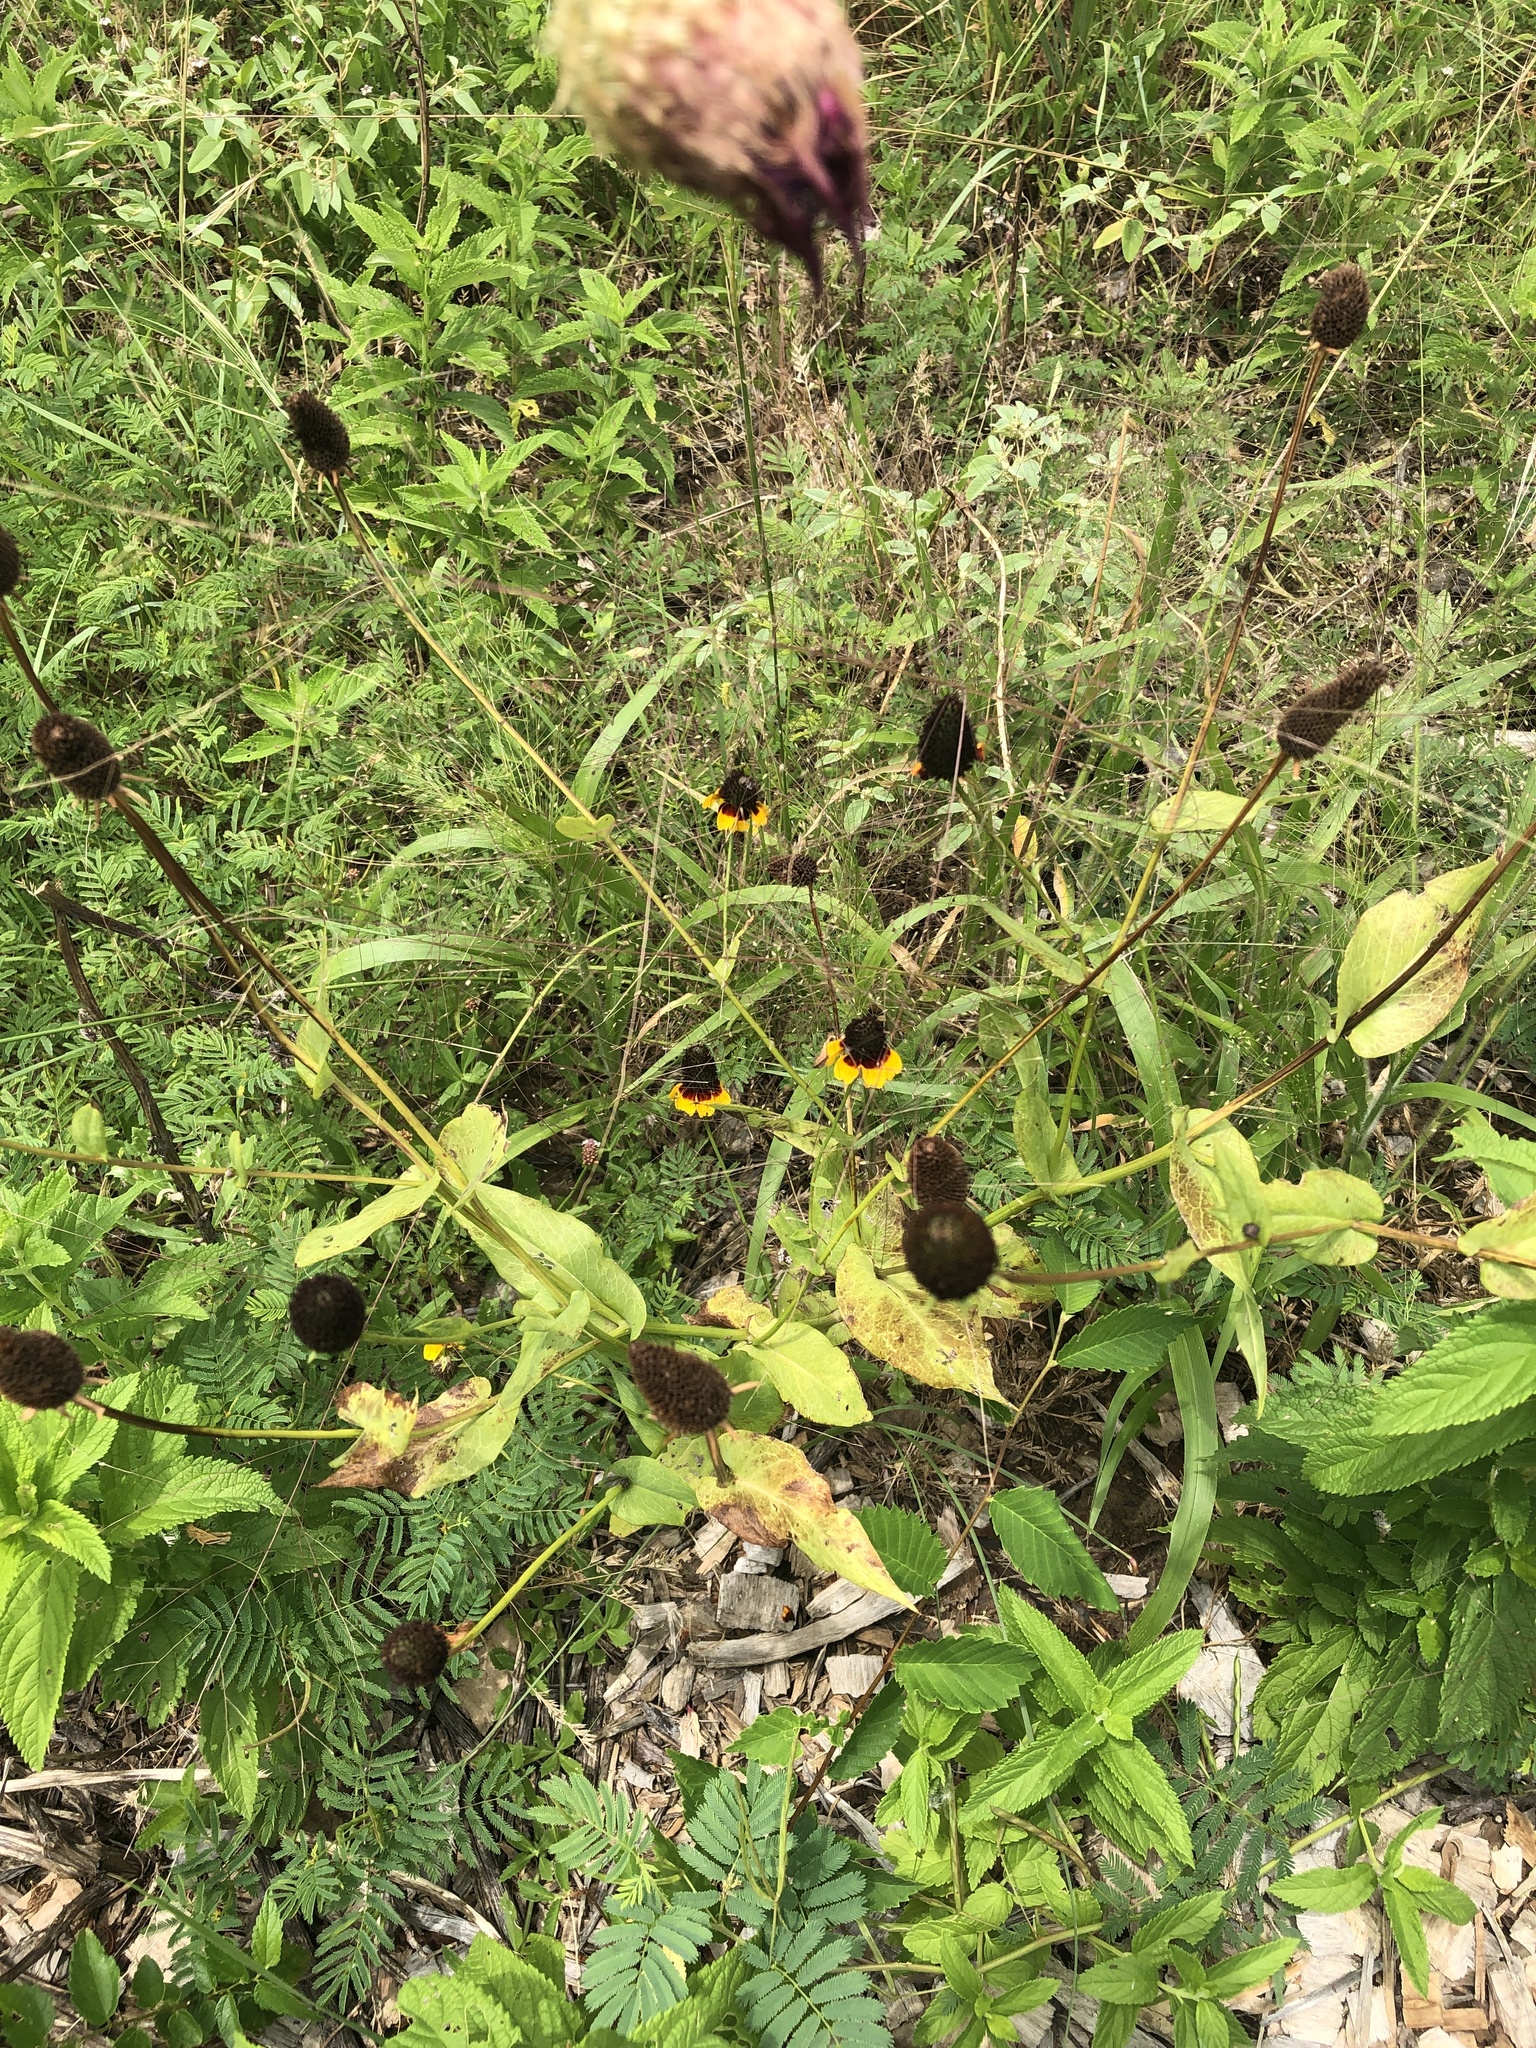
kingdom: Plantae
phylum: Tracheophyta
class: Magnoliopsida
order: Asterales
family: Asteraceae
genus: Rudbeckia
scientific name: Rudbeckia amplexicaulis
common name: Clasping-leaf coneflower
